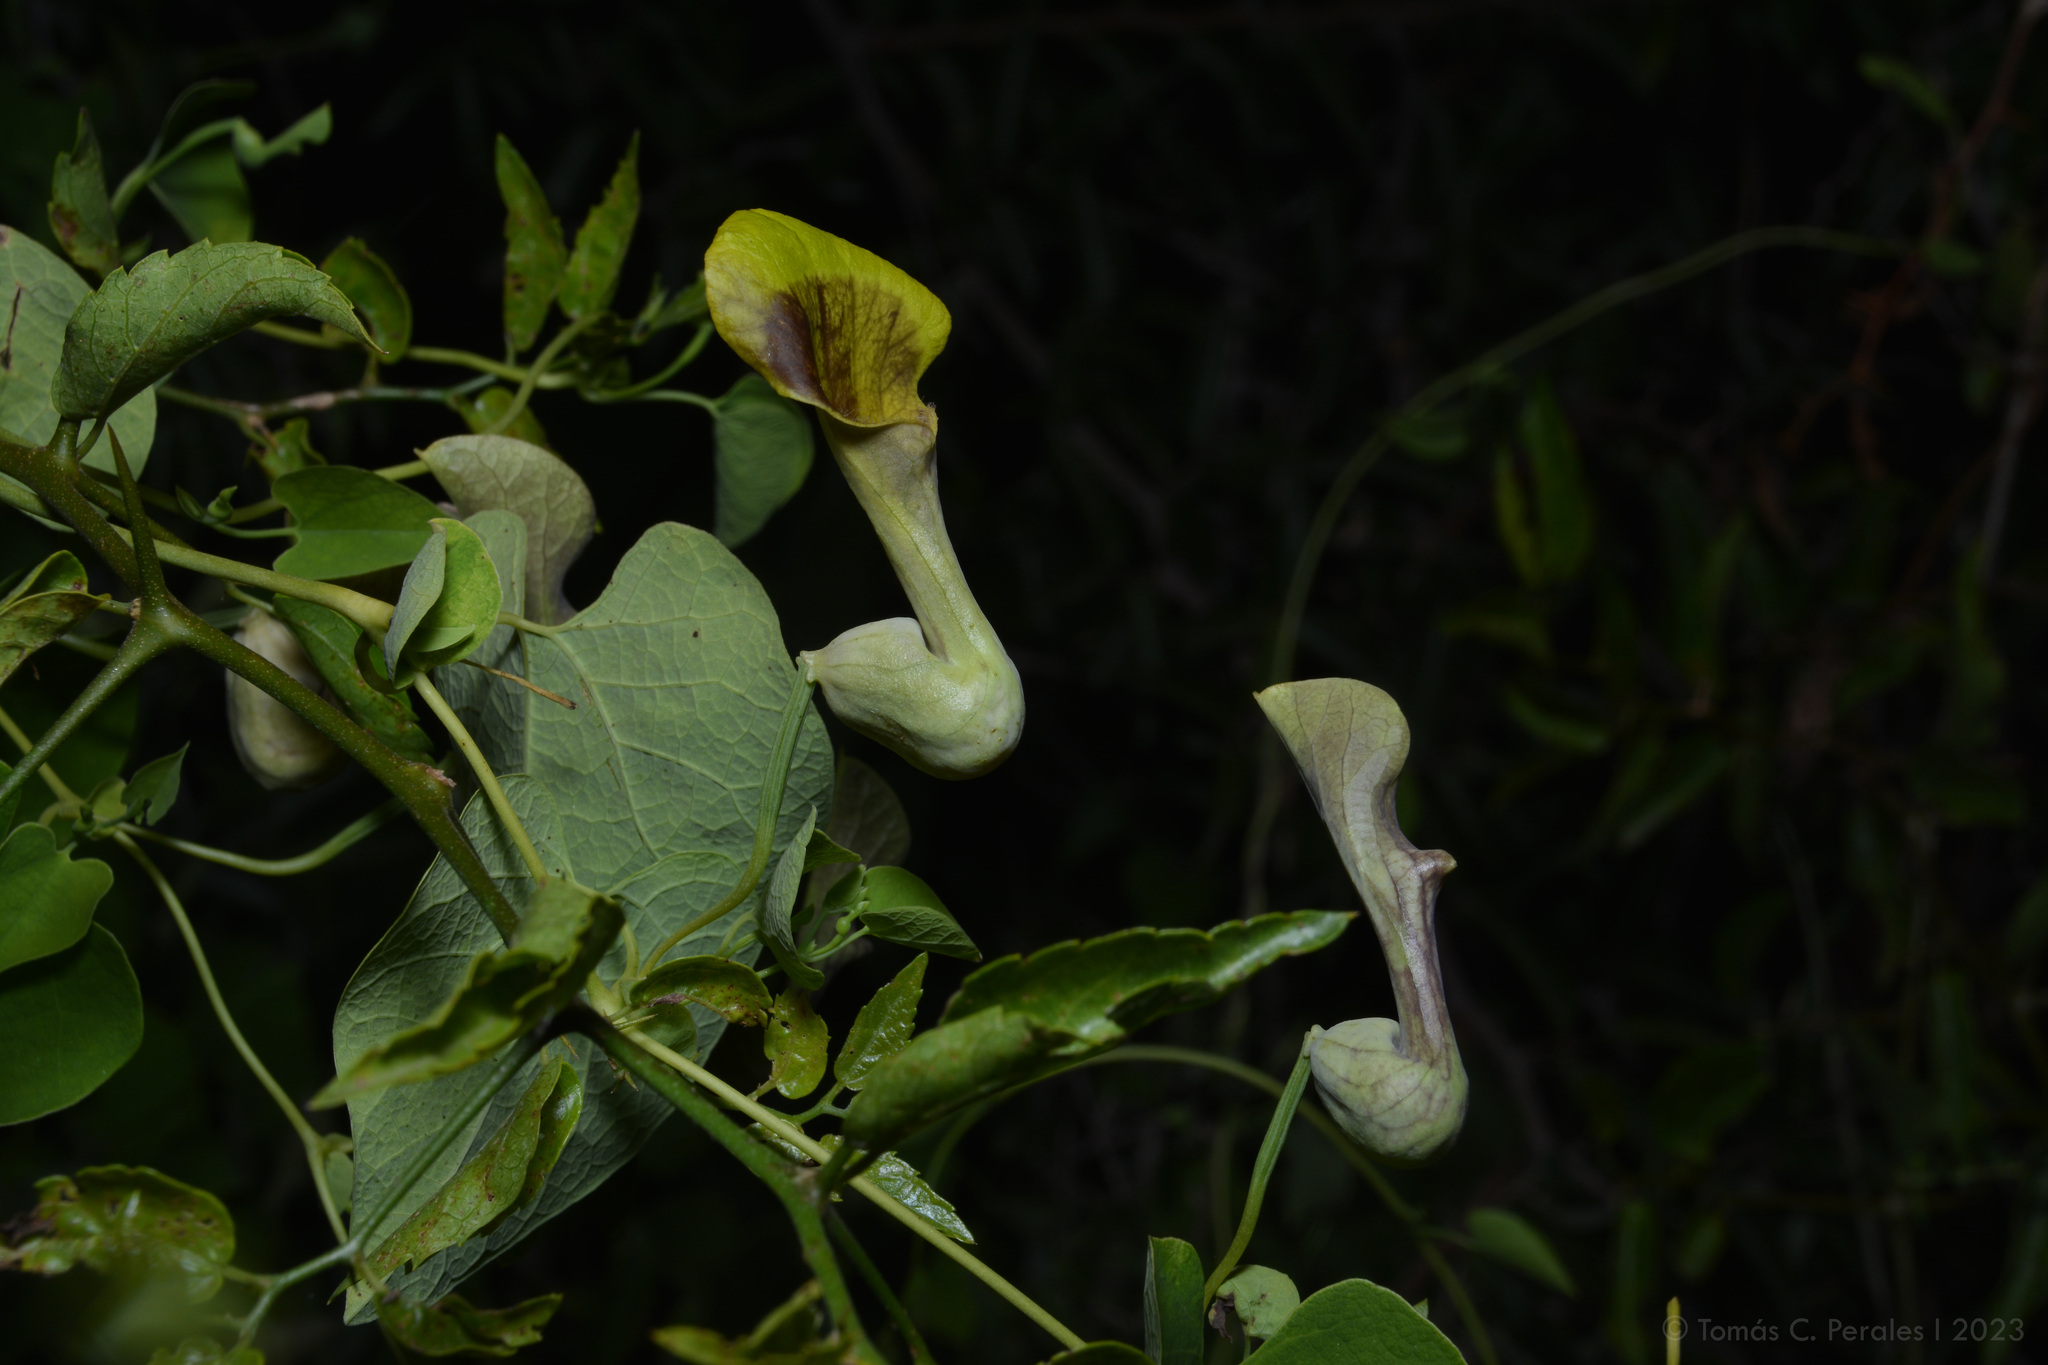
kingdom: Plantae
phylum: Tracheophyta
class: Magnoliopsida
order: Piperales
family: Aristolochiaceae
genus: Aristolochia
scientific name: Aristolochia argentina
